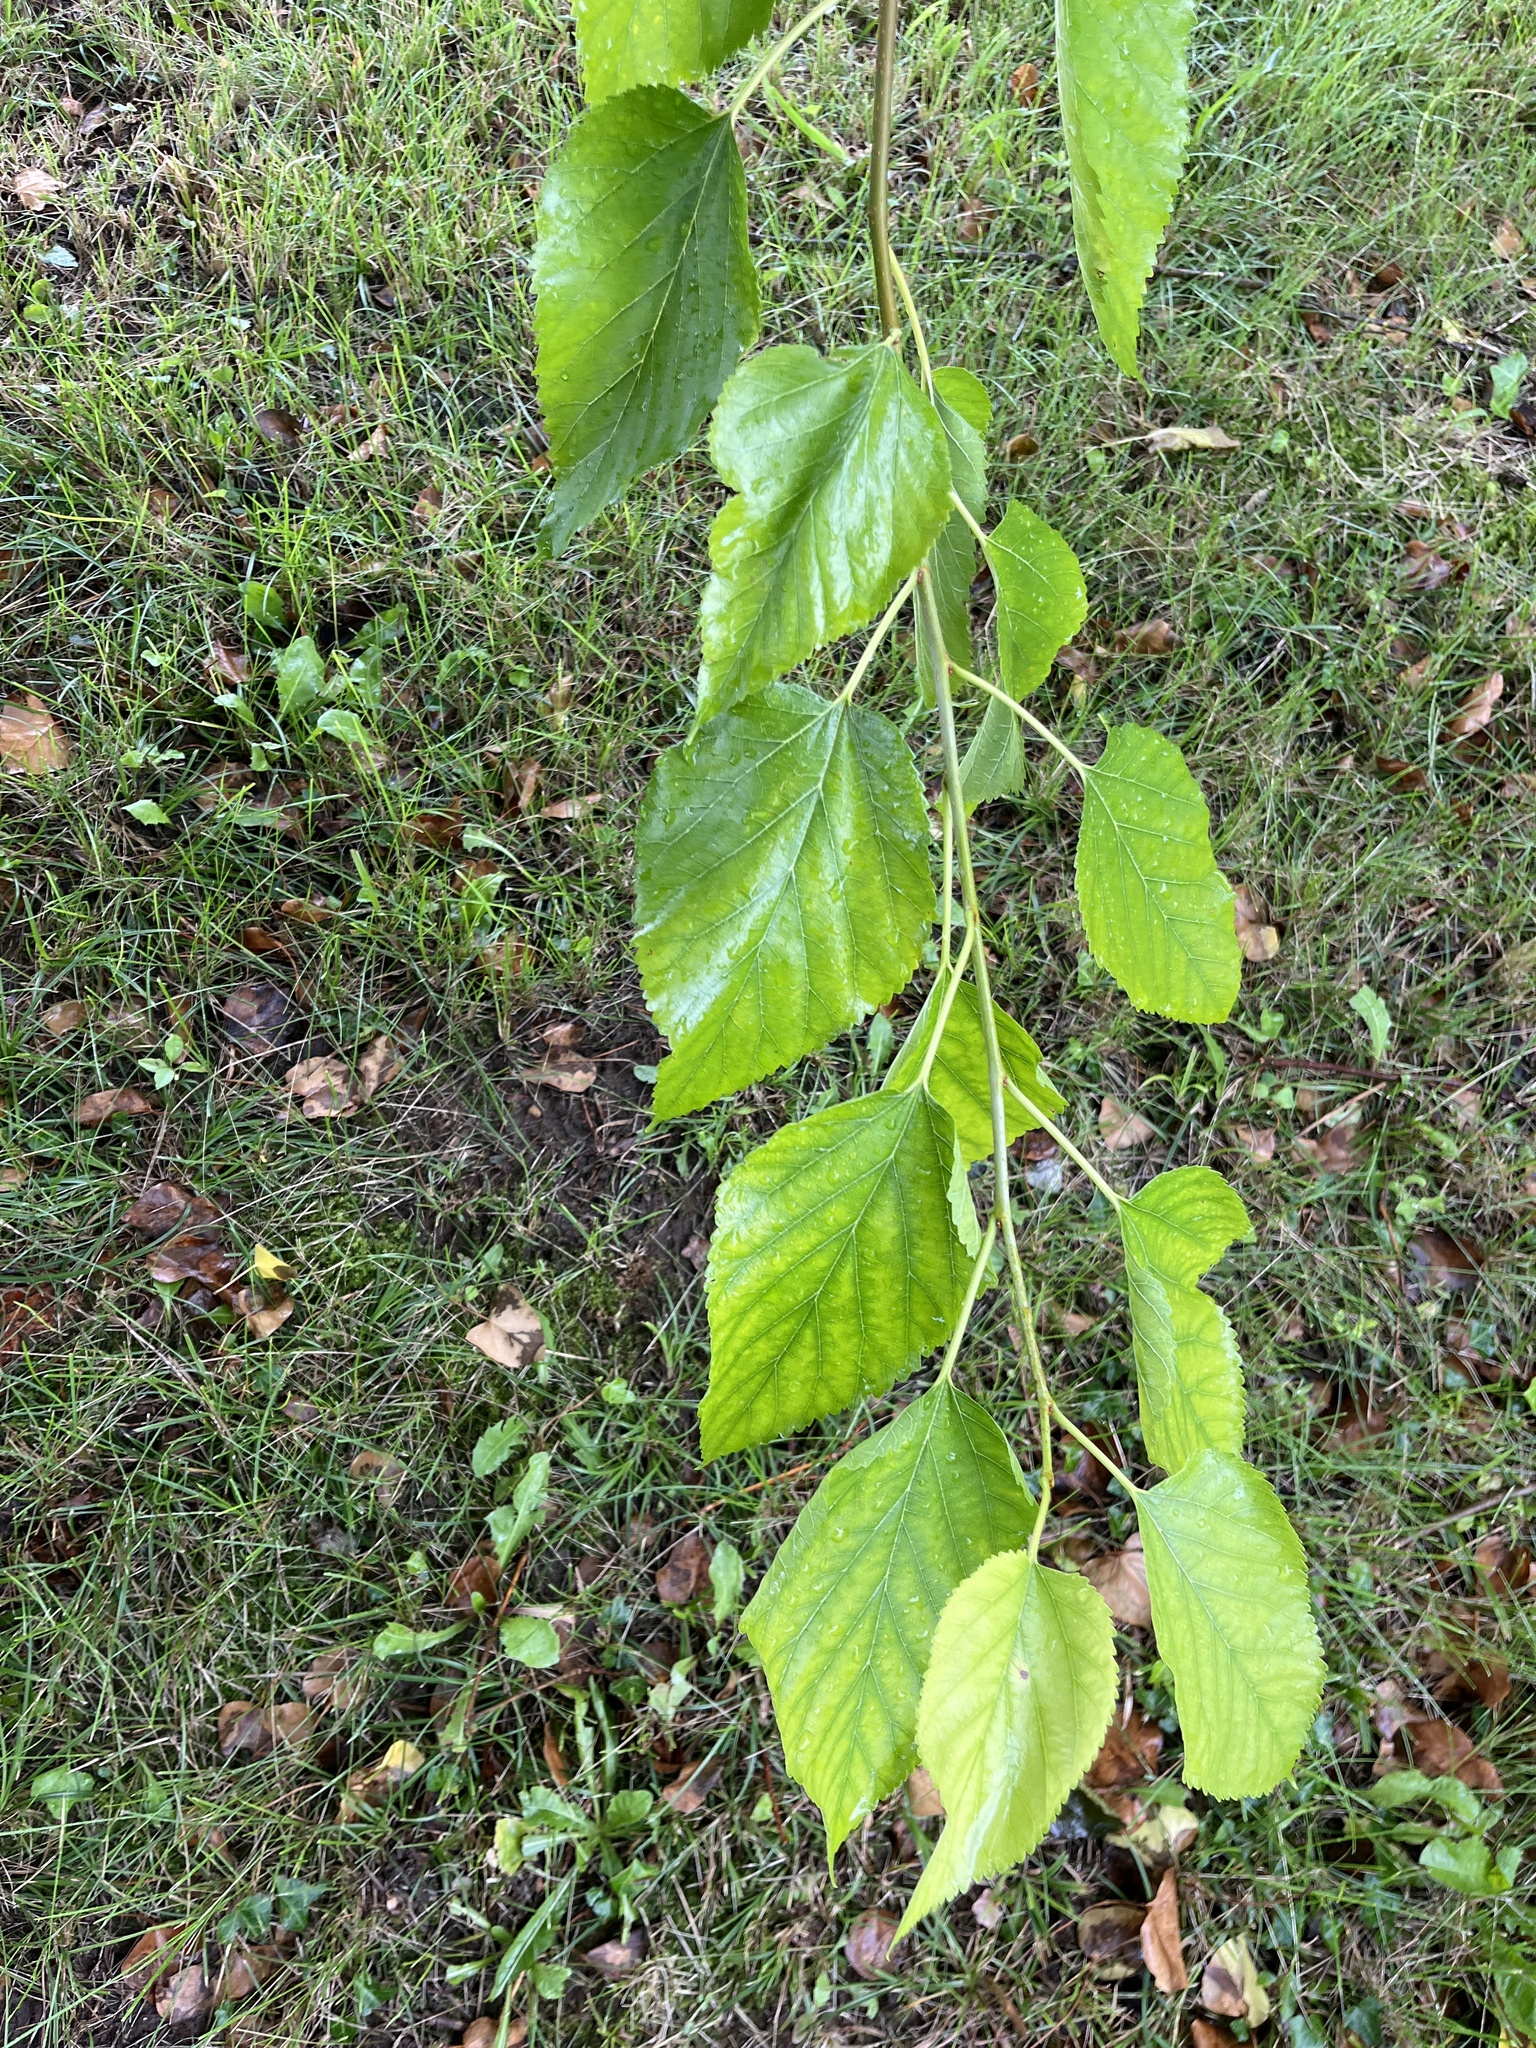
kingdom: Plantae
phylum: Tracheophyta
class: Magnoliopsida
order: Rosales
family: Moraceae
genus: Morus
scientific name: Morus alba
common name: White mulberry
